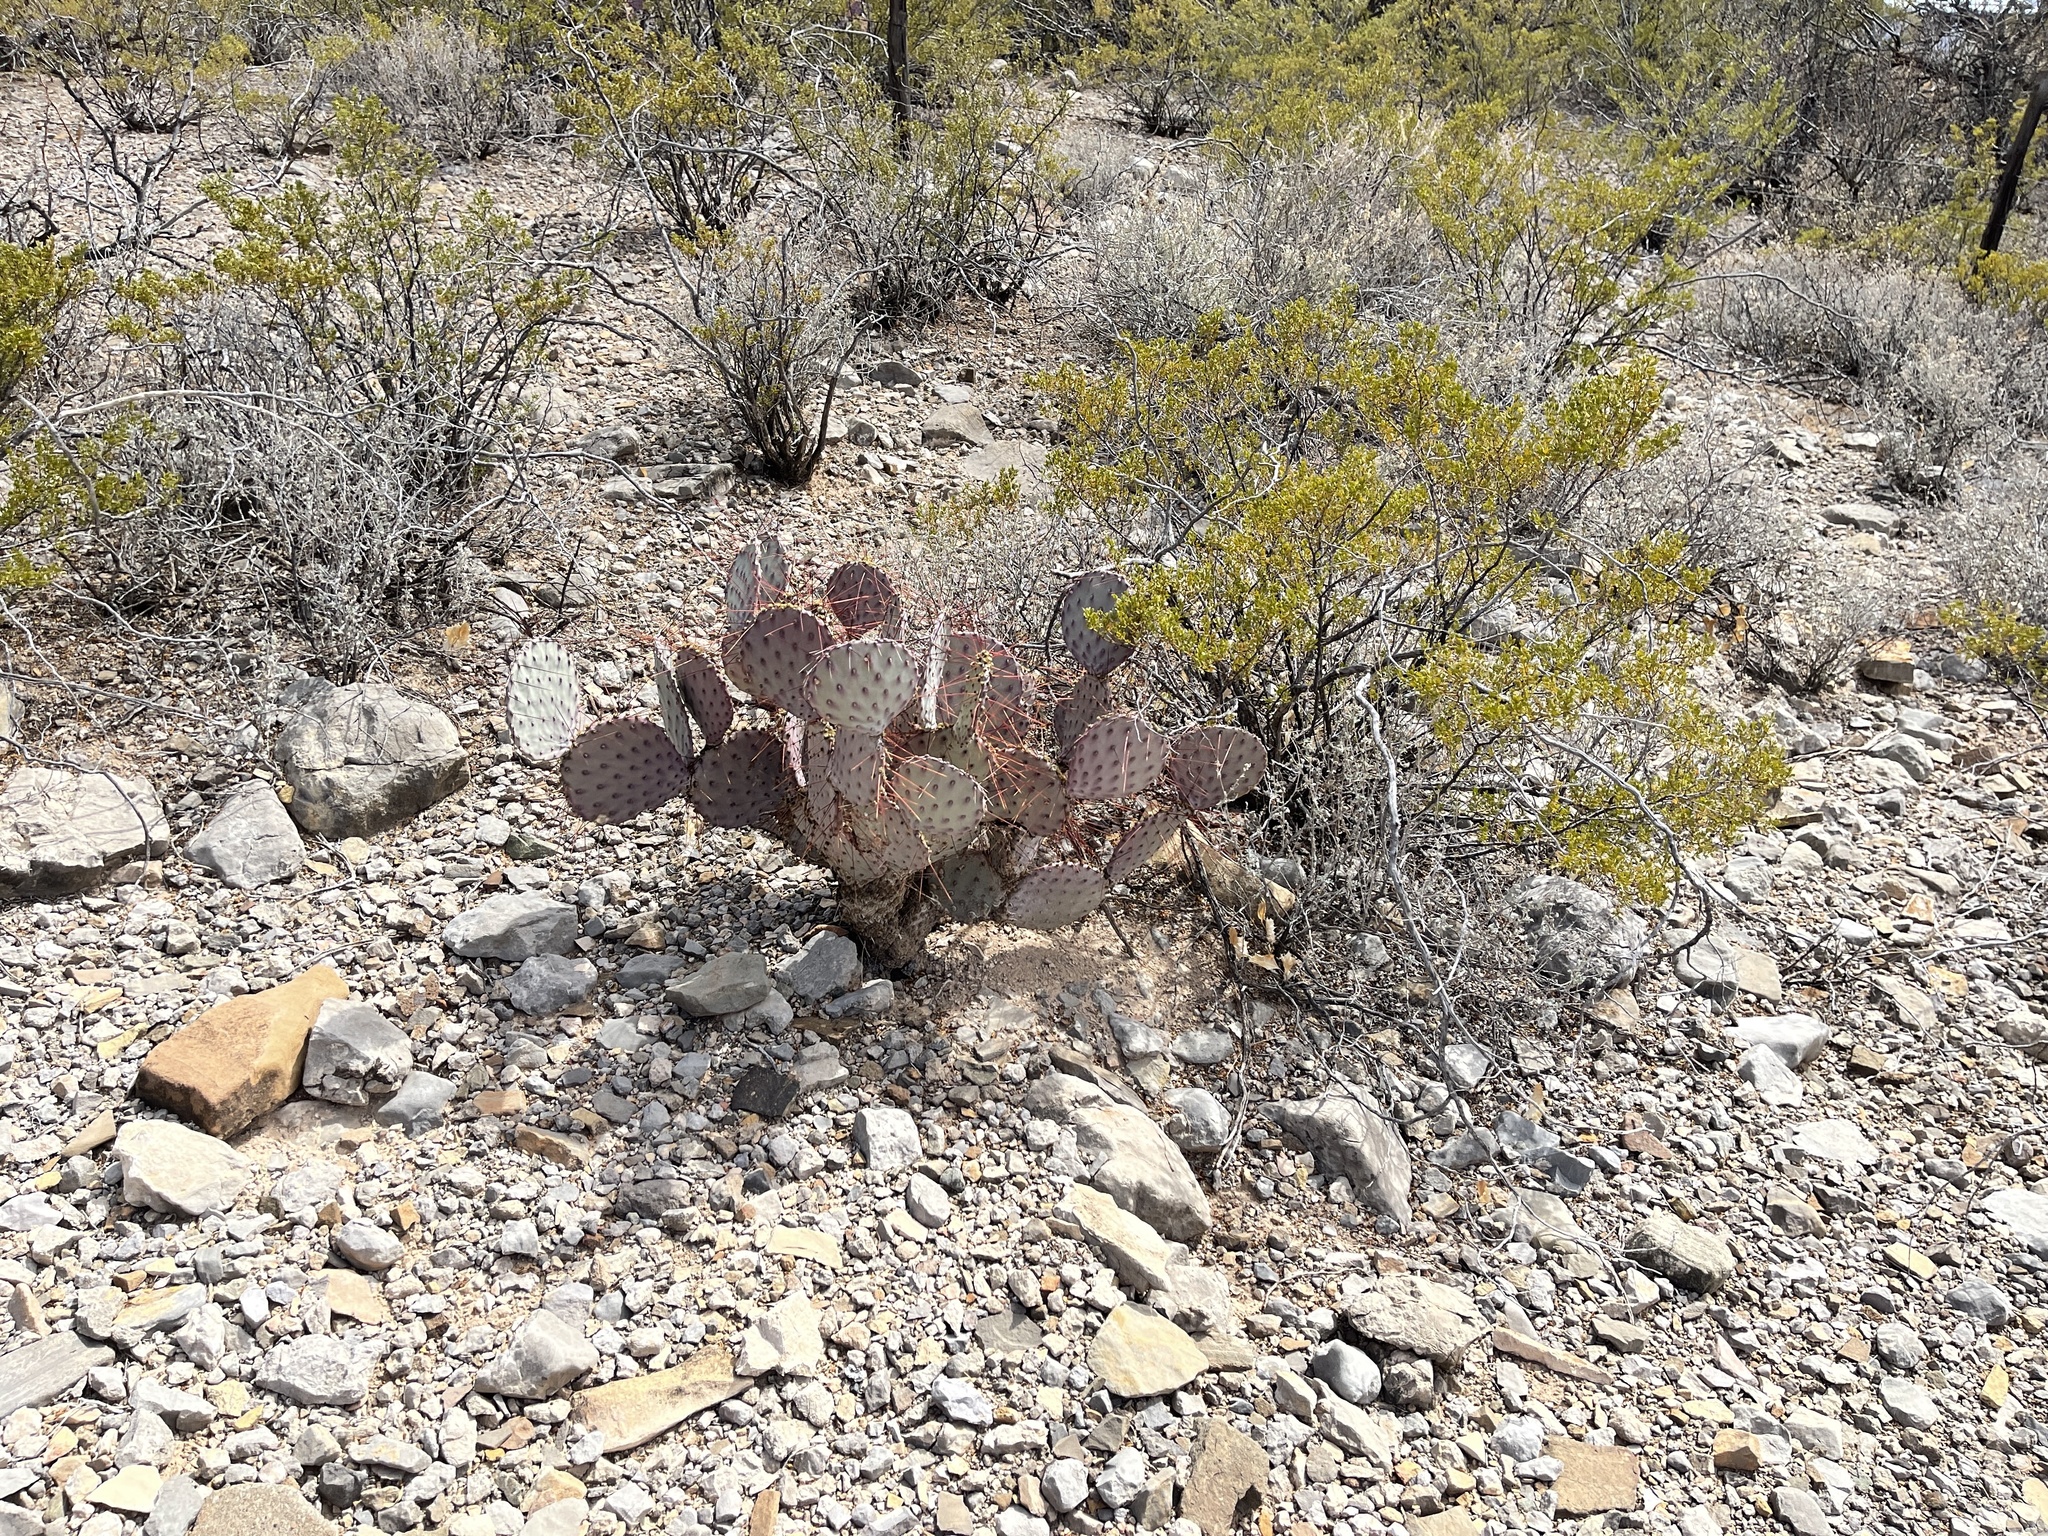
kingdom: Plantae
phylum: Tracheophyta
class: Magnoliopsida
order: Caryophyllales
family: Cactaceae
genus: Opuntia
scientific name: Opuntia macrocentra
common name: Purple prickly-pear
